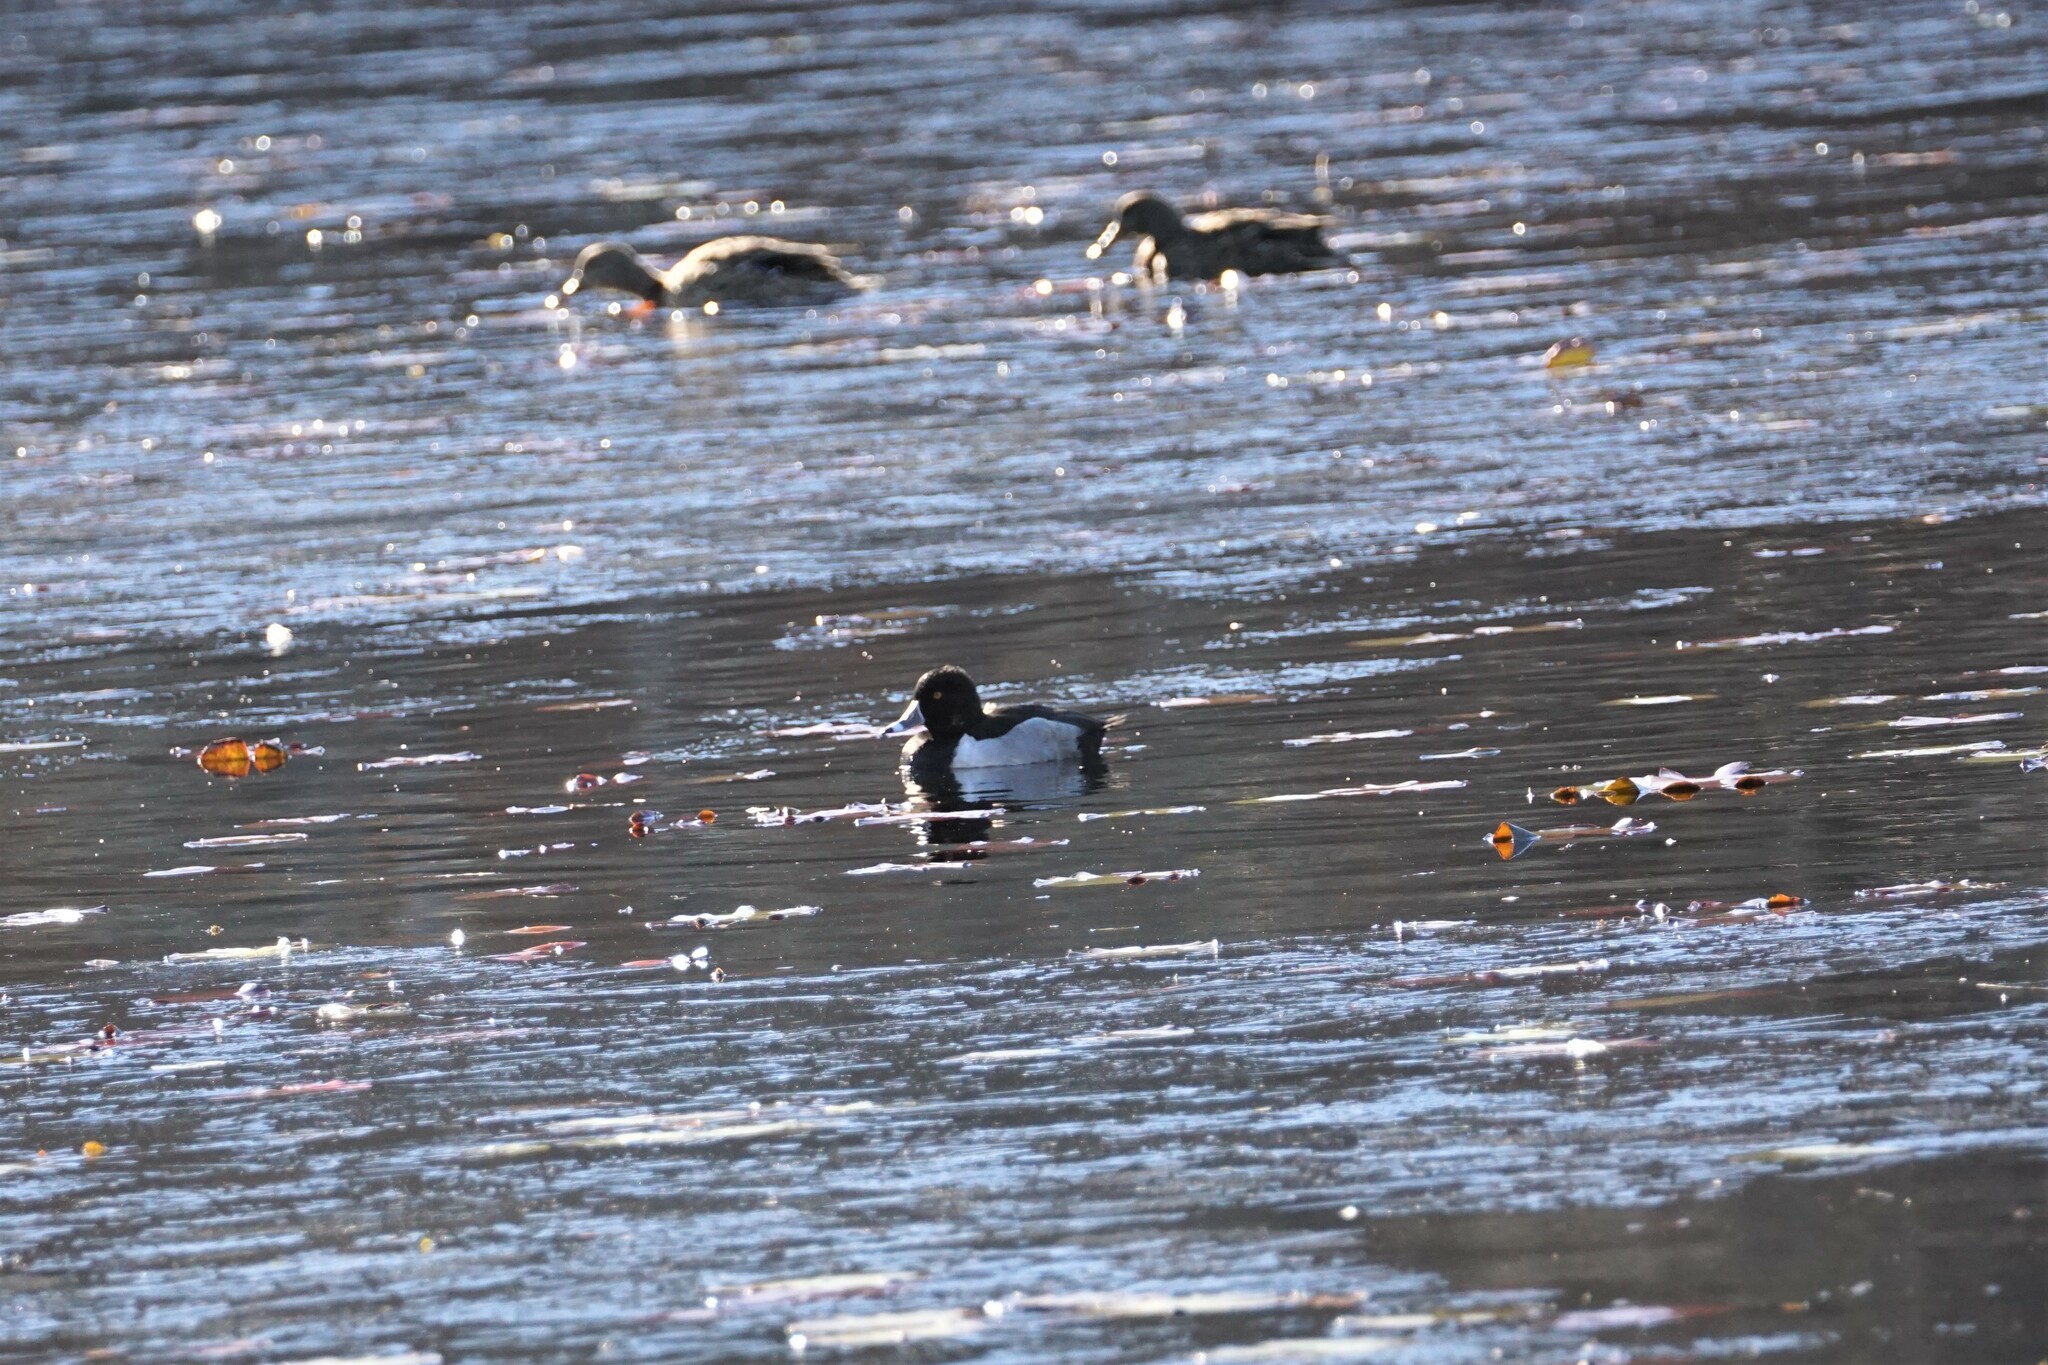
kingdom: Animalia
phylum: Chordata
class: Aves
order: Anseriformes
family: Anatidae
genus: Aythya
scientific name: Aythya collaris
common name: Ring-necked duck
